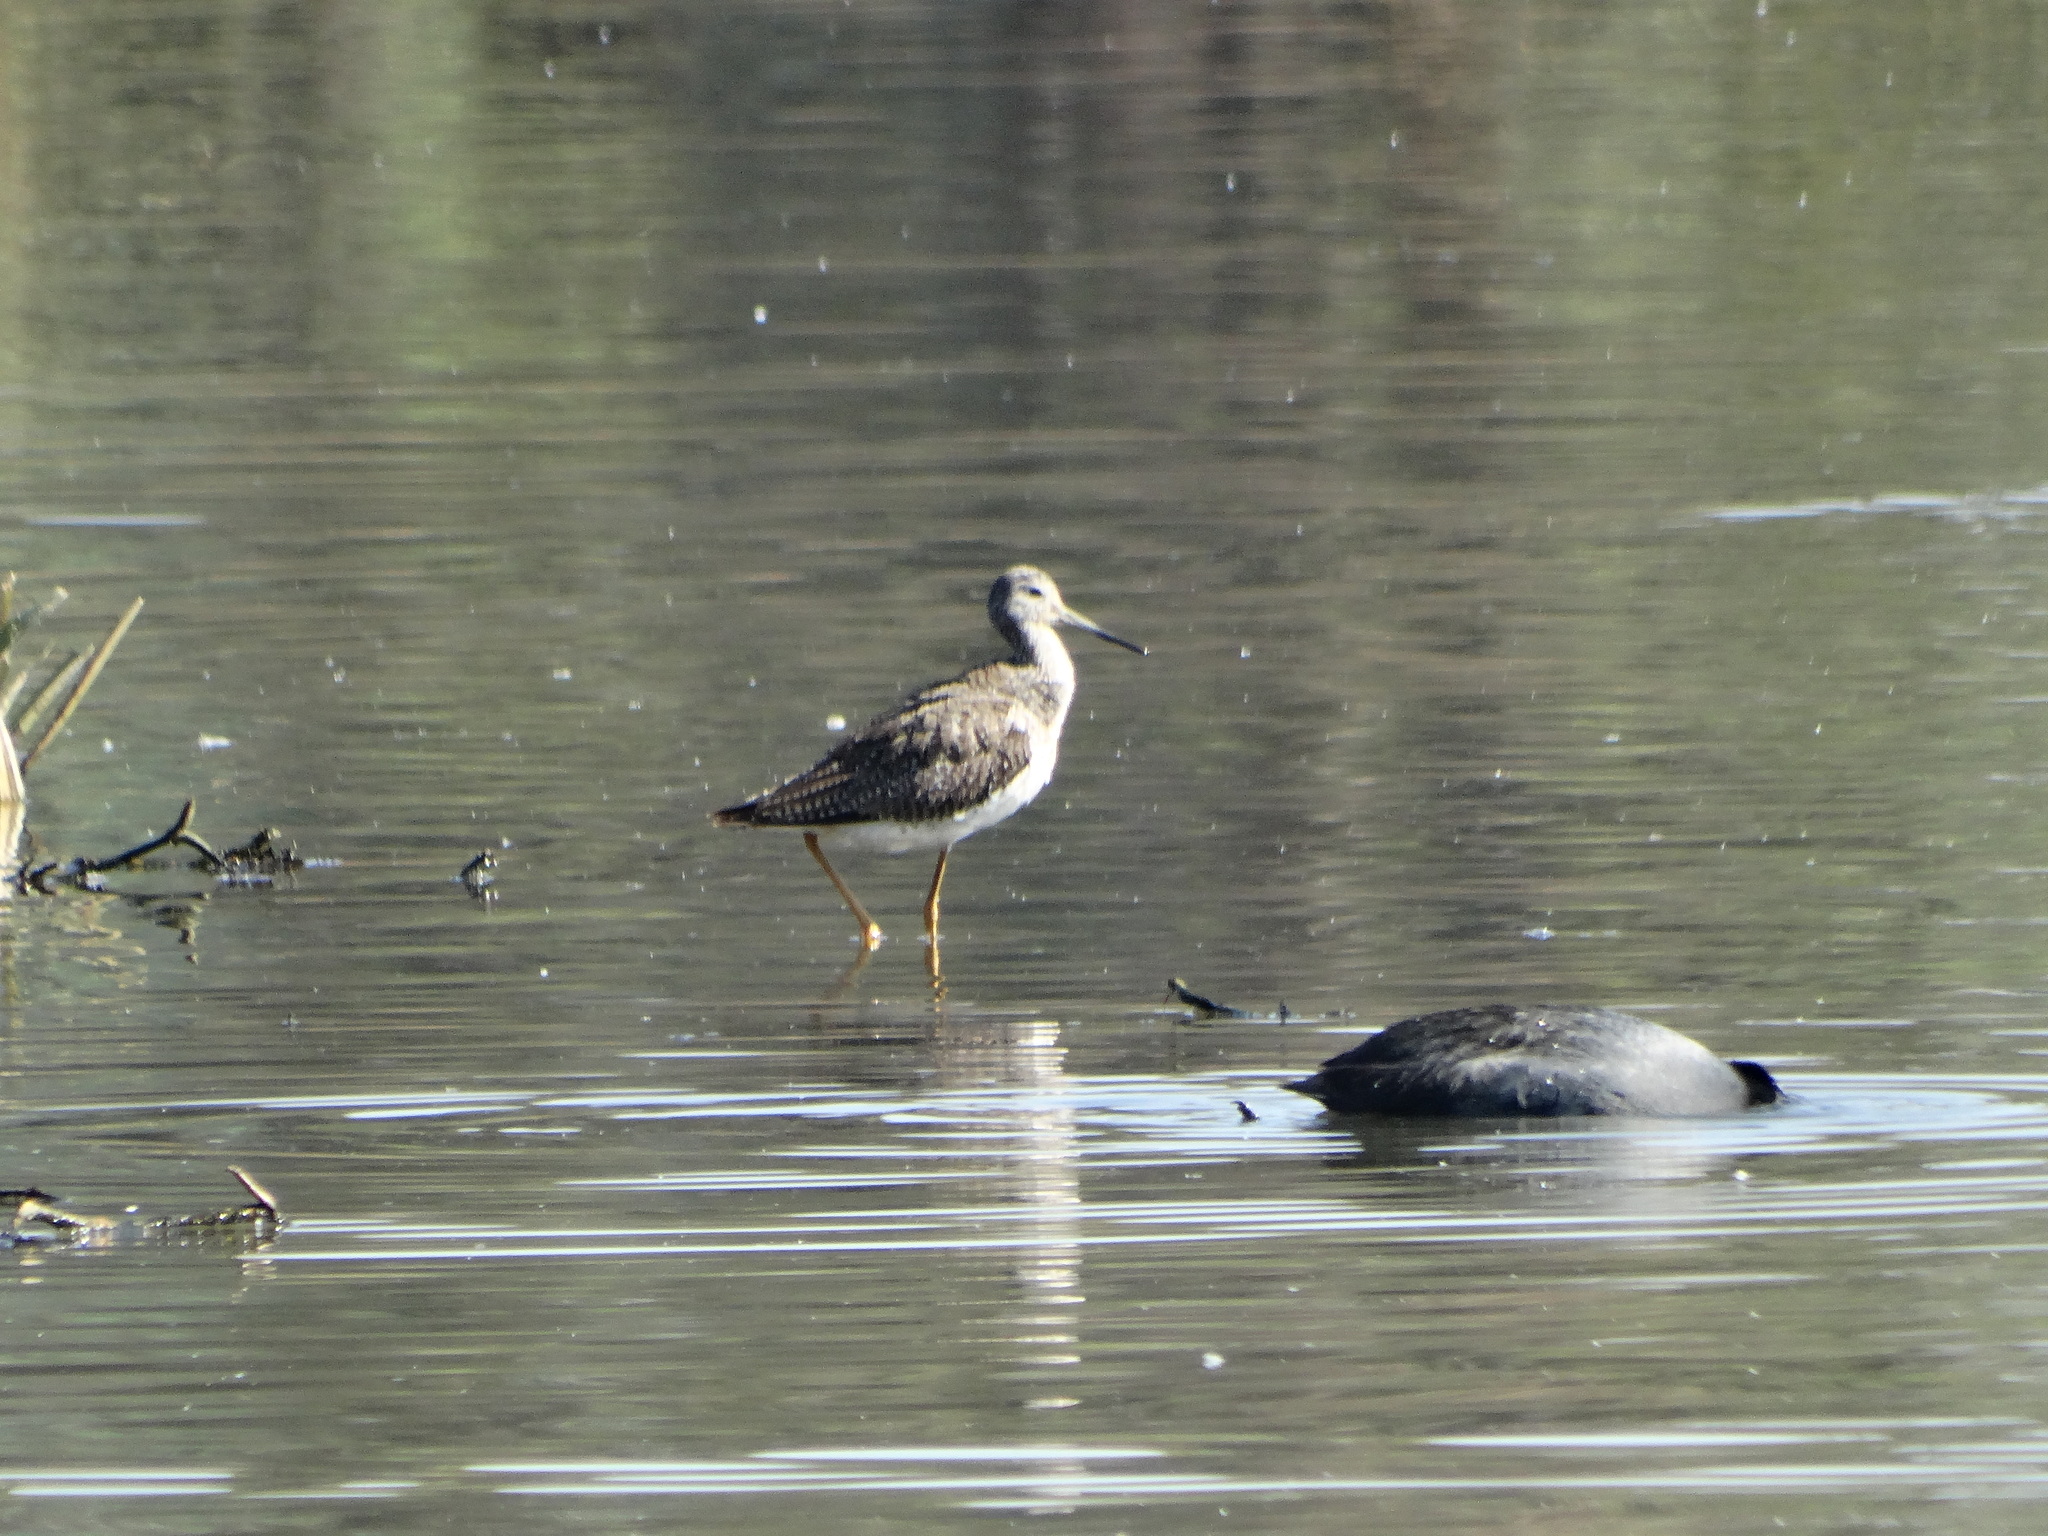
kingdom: Animalia
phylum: Chordata
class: Aves
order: Charadriiformes
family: Scolopacidae
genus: Tringa
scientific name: Tringa melanoleuca
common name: Greater yellowlegs
